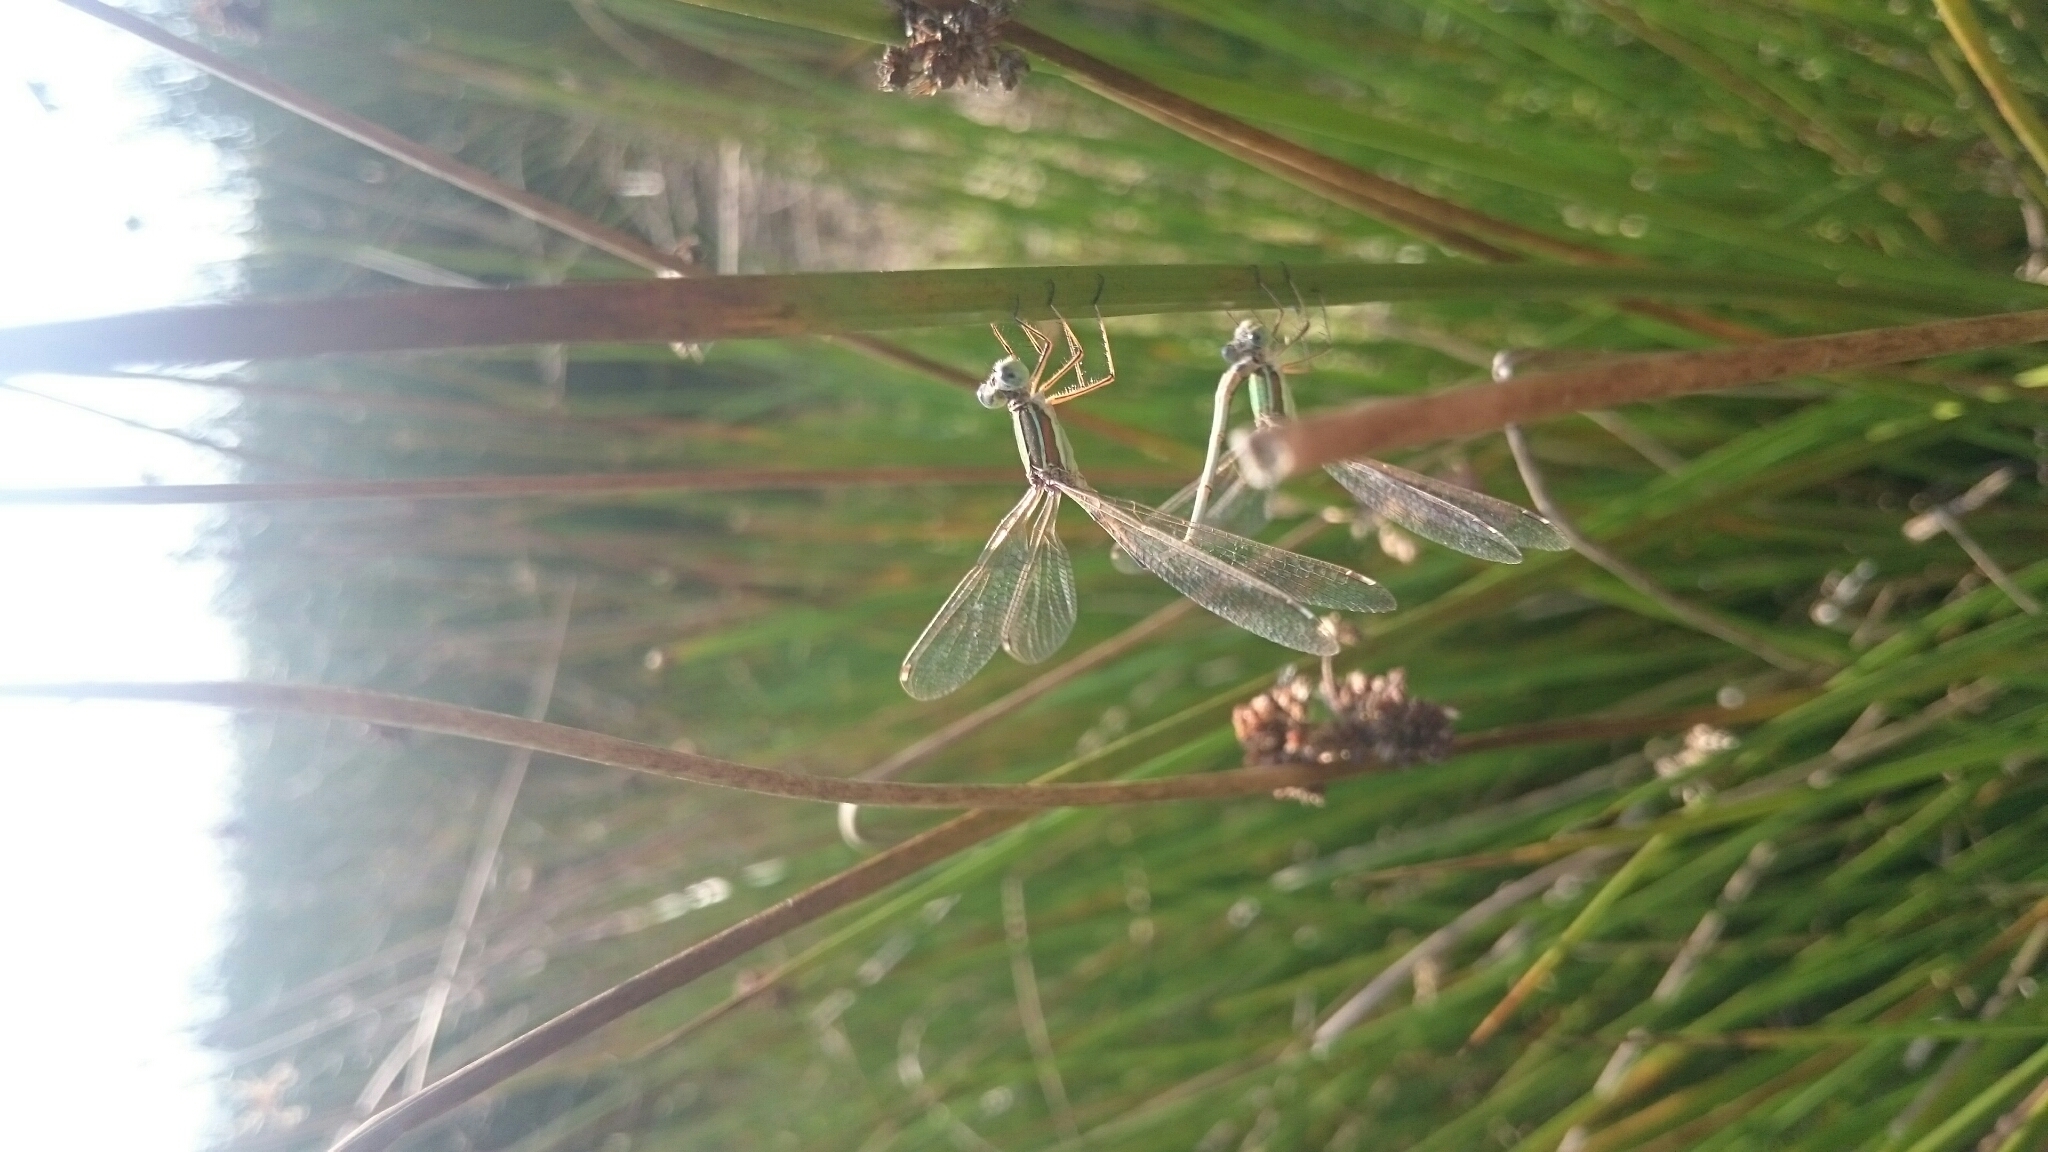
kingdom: Animalia
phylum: Arthropoda
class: Insecta
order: Odonata
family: Lestidae
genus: Lestes
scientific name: Lestes barbarus
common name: Migrant spreadwing
